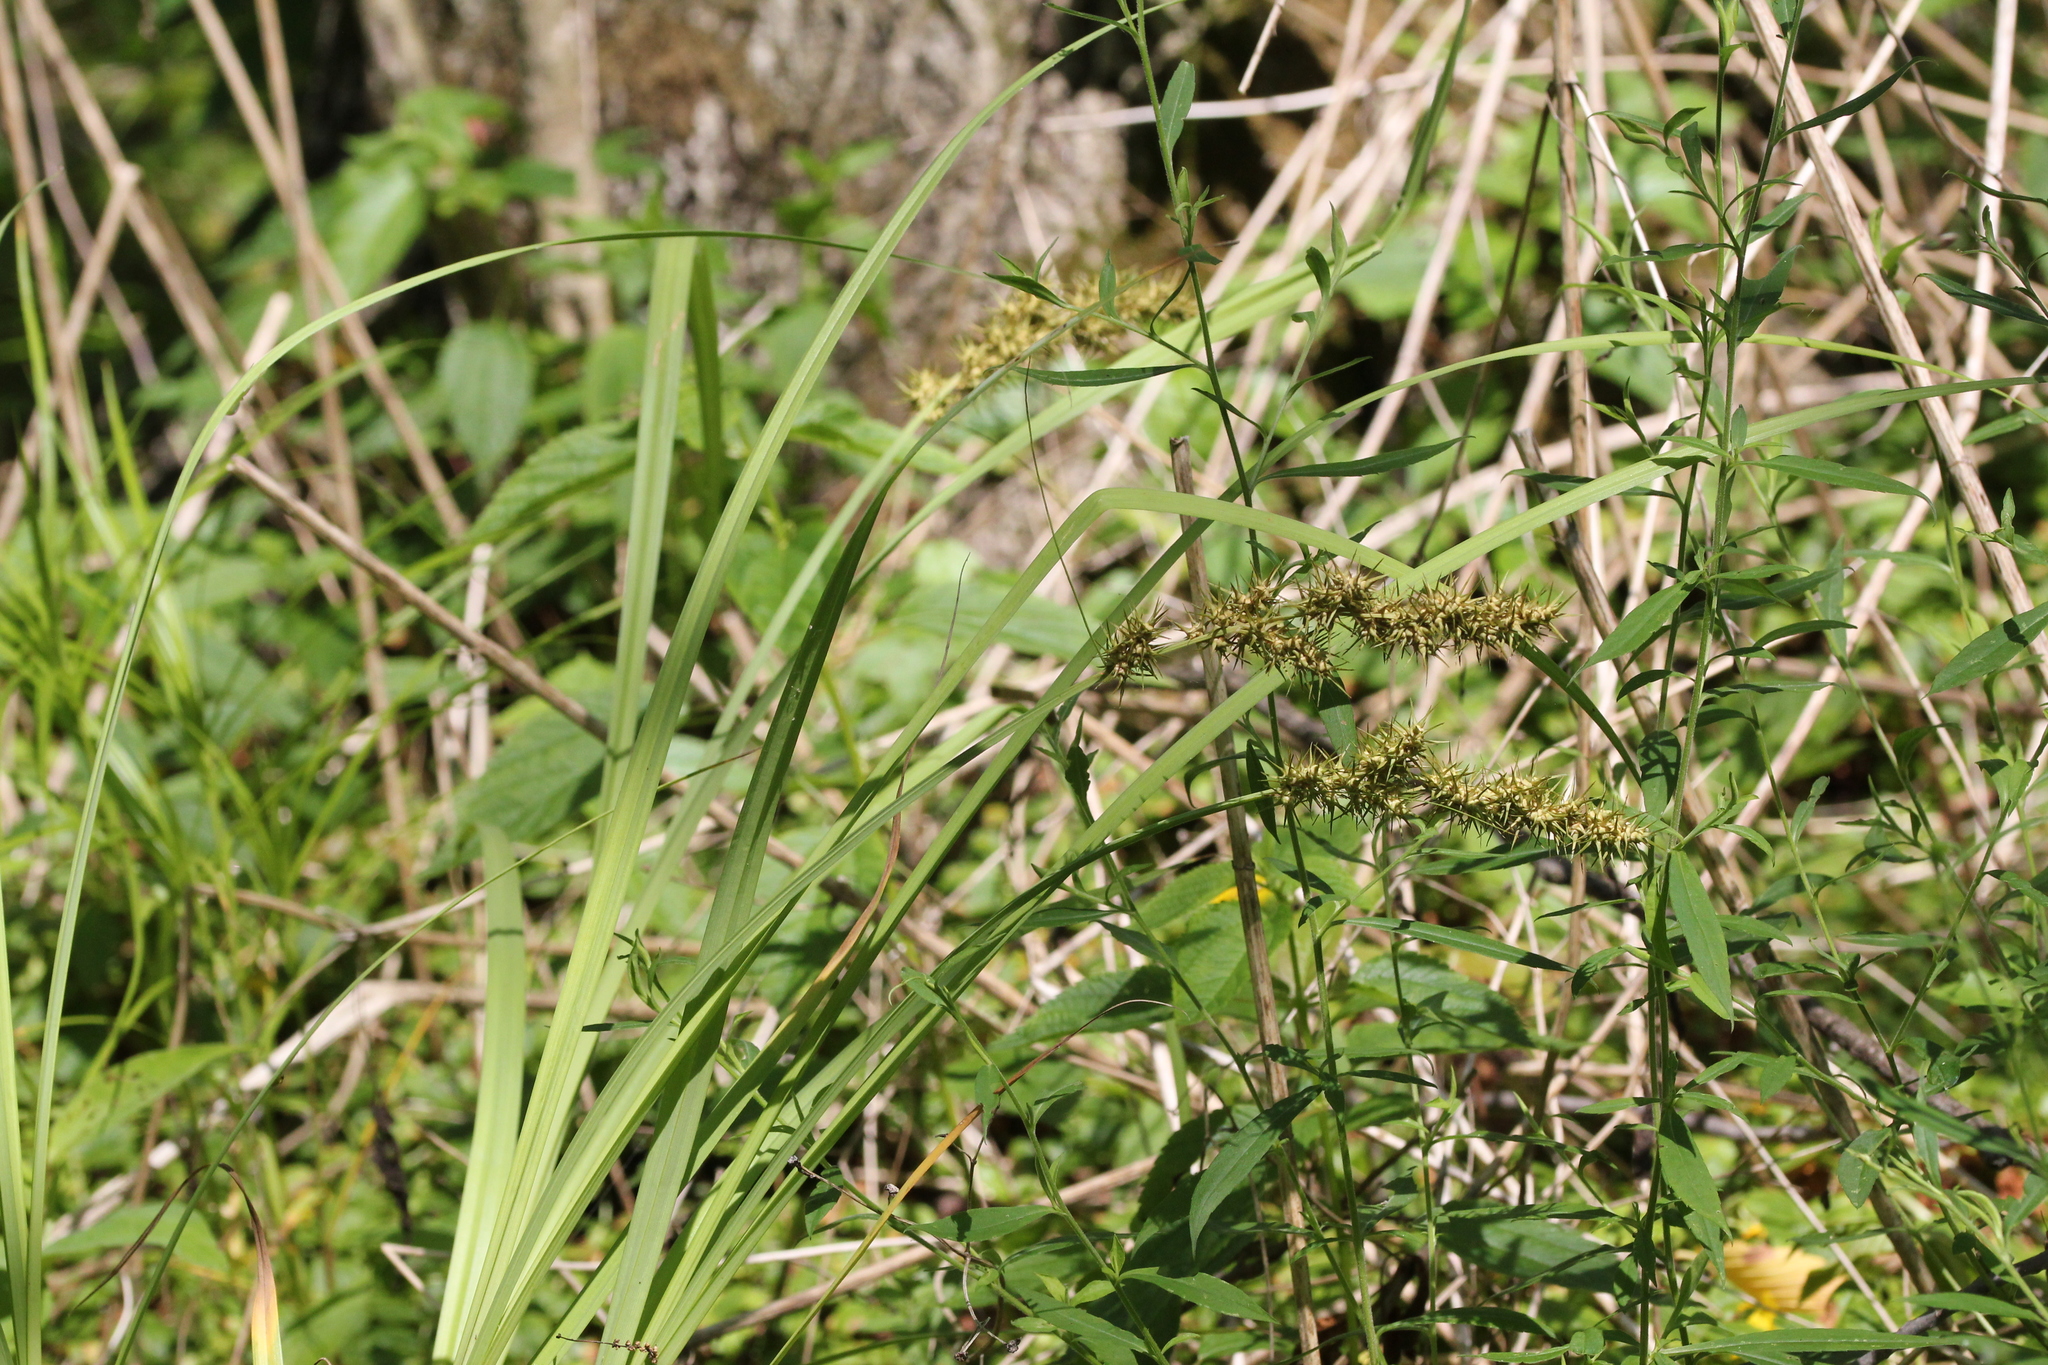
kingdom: Plantae
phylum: Tracheophyta
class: Liliopsida
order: Poales
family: Cyperaceae
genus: Carex
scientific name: Carex crus-corvi
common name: Crow-spur sedge
